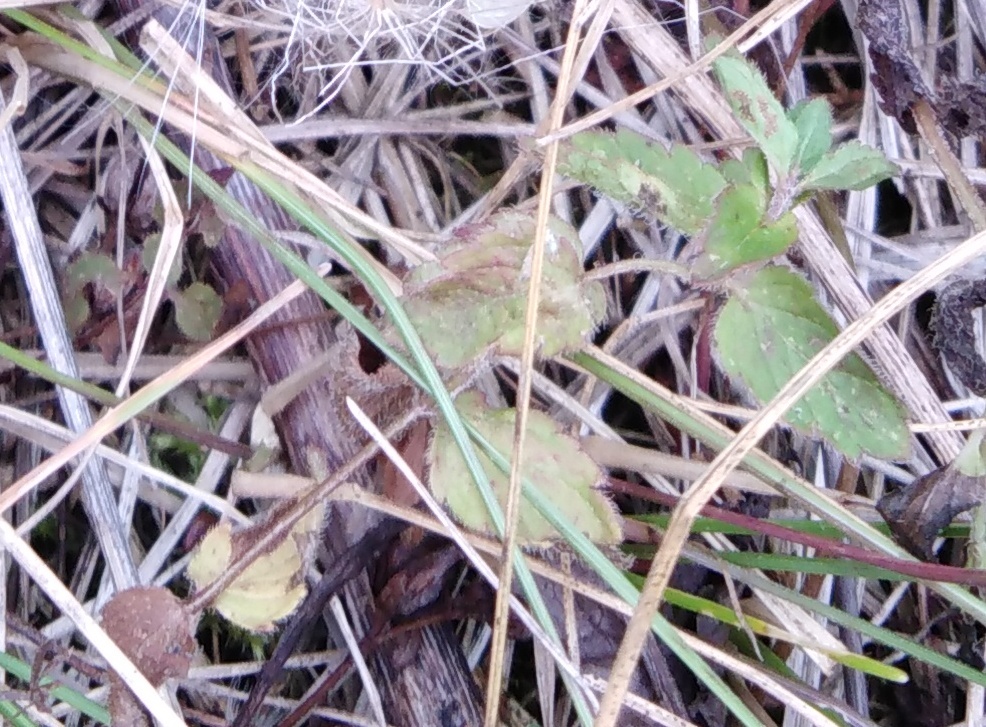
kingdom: Plantae
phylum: Tracheophyta
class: Magnoliopsida
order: Lamiales
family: Plantaginaceae
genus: Veronica
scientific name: Veronica chamaedrys
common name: Germander speedwell
